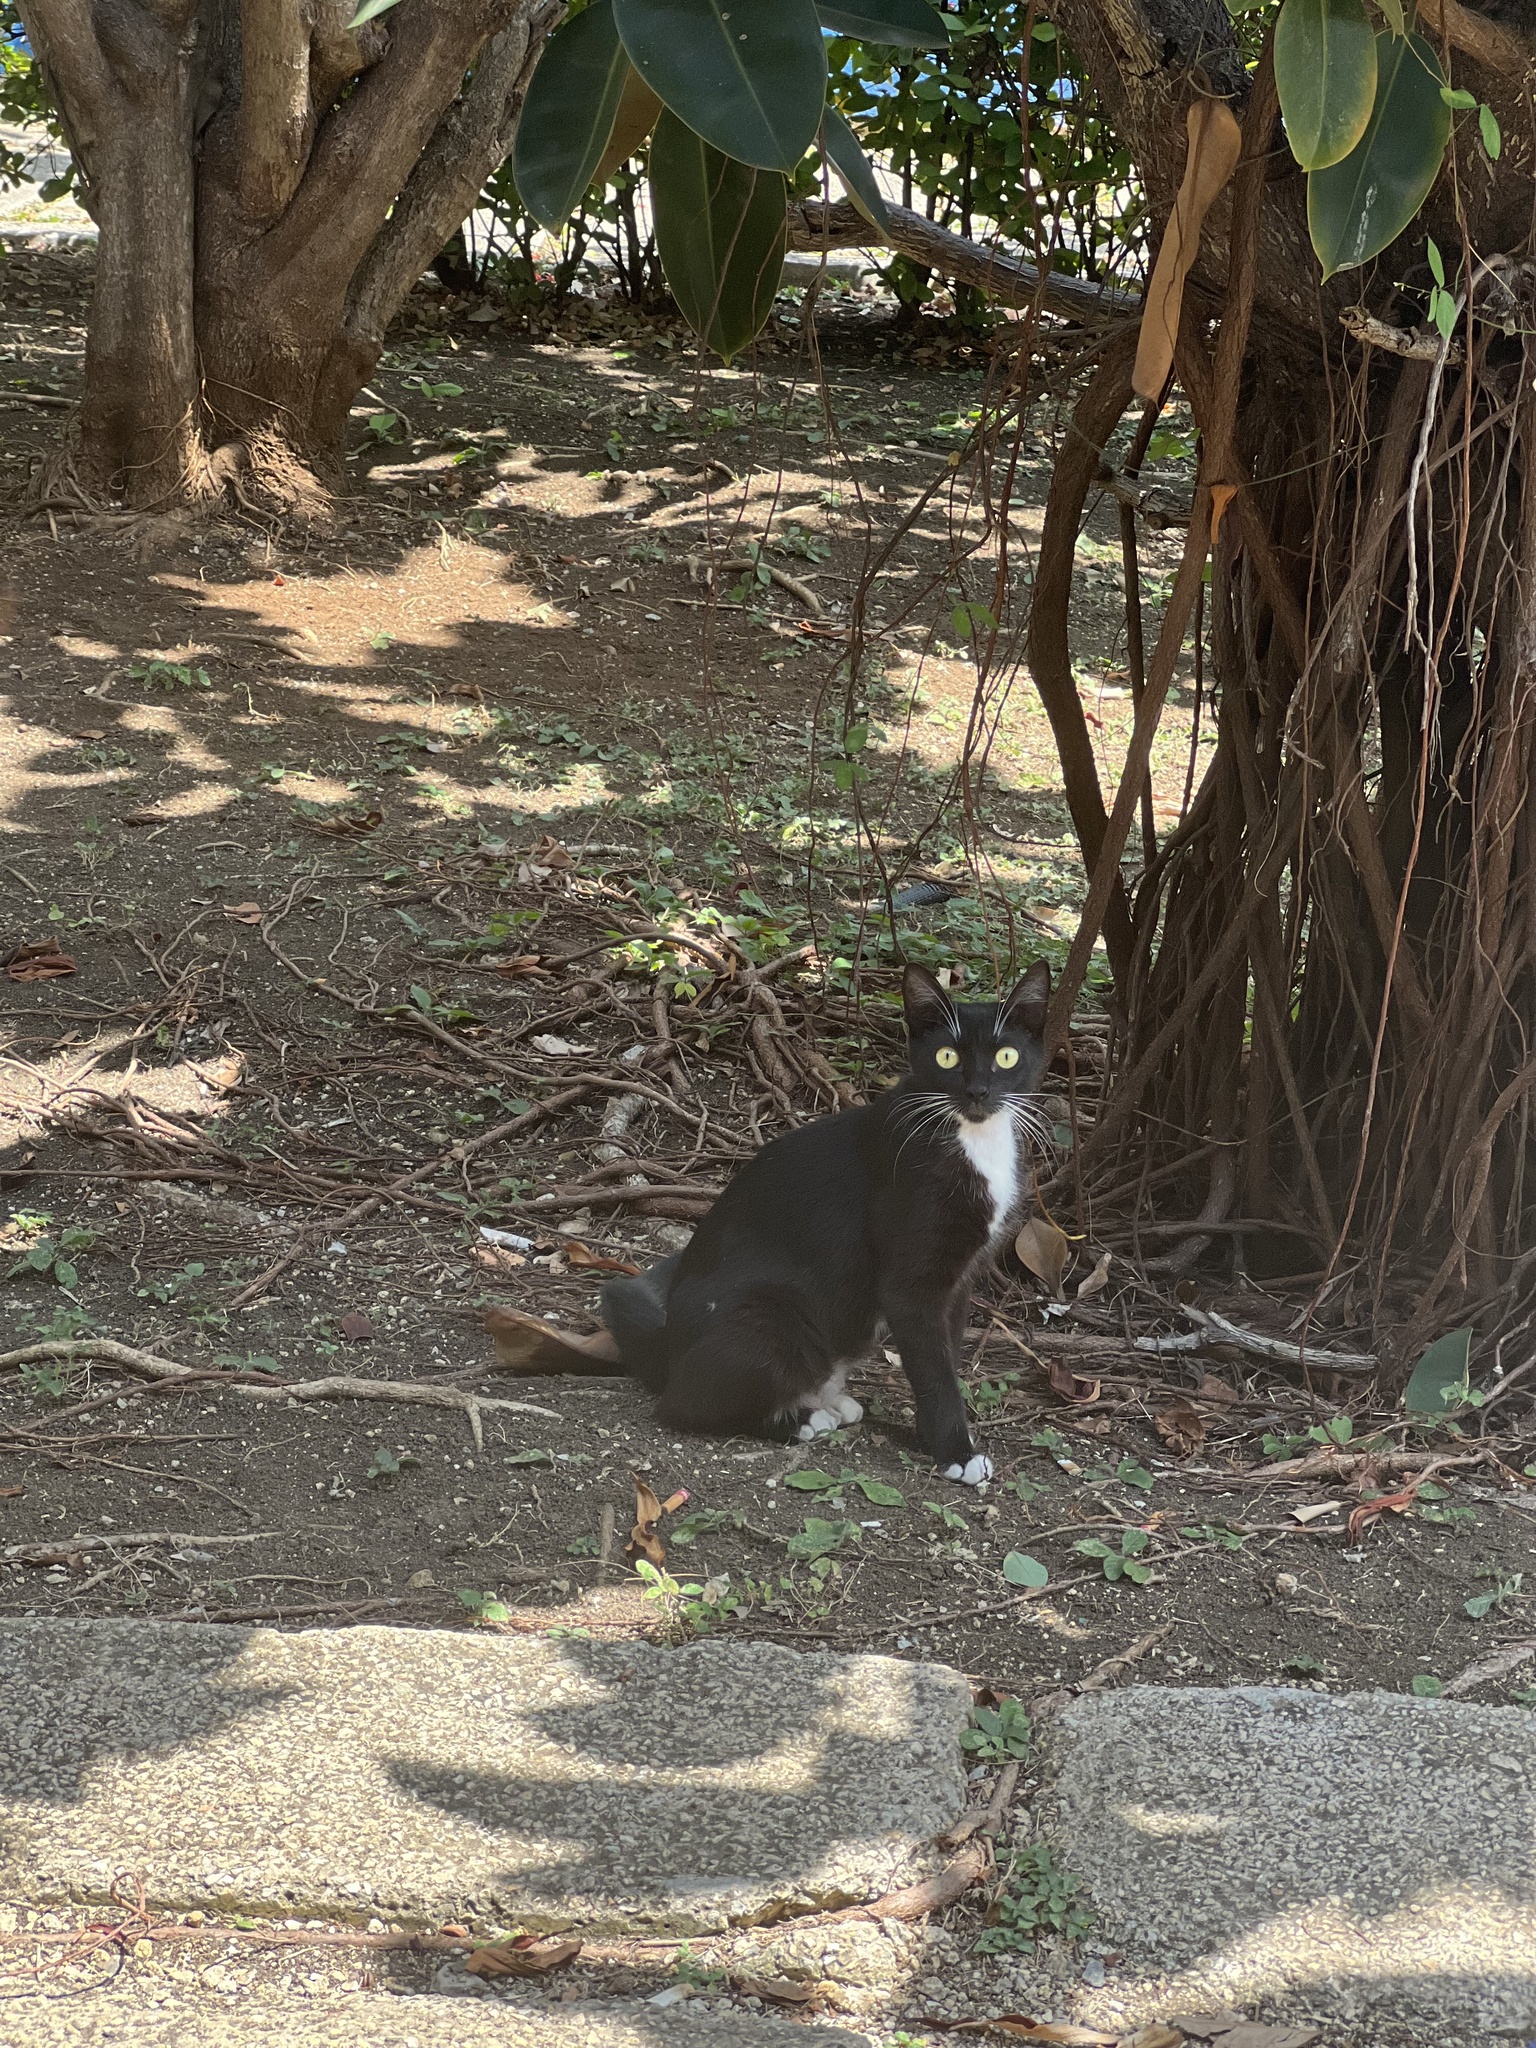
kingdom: Animalia
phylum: Chordata
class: Mammalia
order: Carnivora
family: Felidae
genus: Felis
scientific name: Felis catus
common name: Domestic cat
